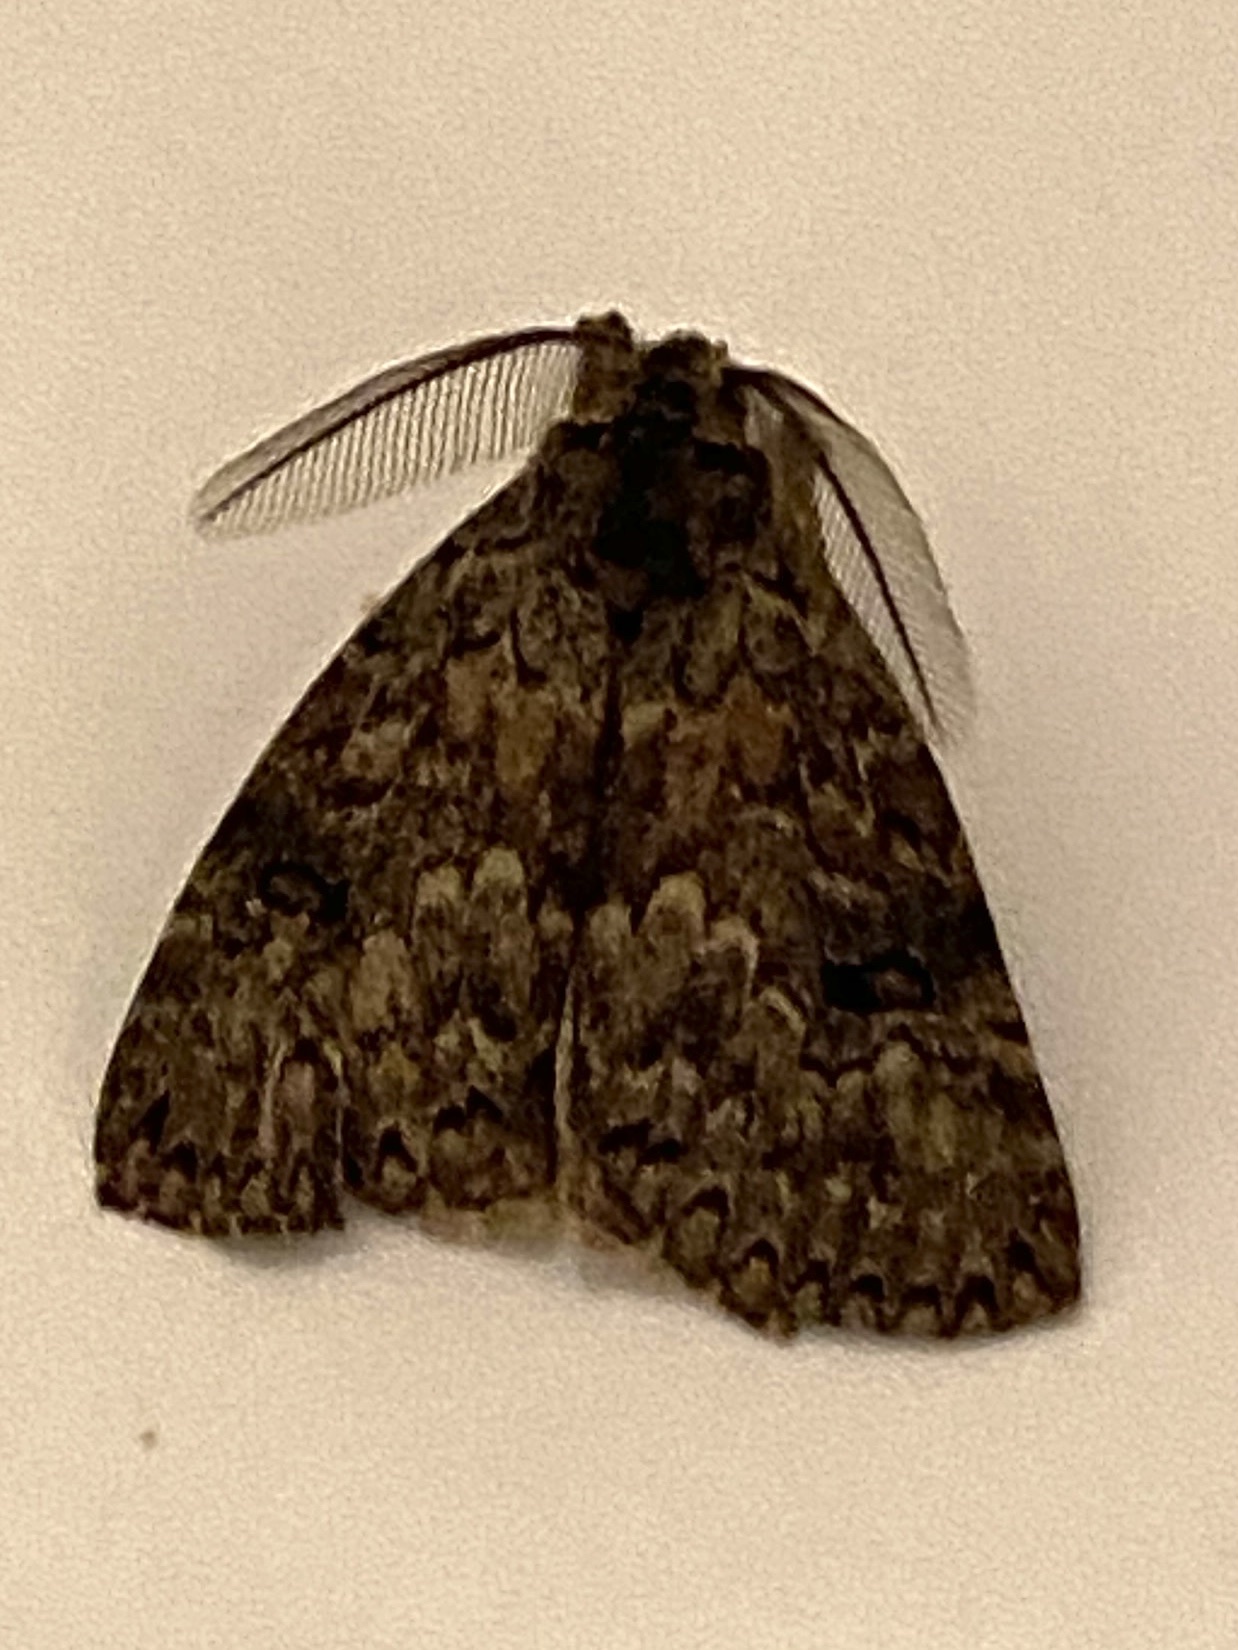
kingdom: Animalia
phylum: Arthropoda
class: Insecta
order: Lepidoptera
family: Erebidae
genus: Laelia
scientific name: Laelia fusca
